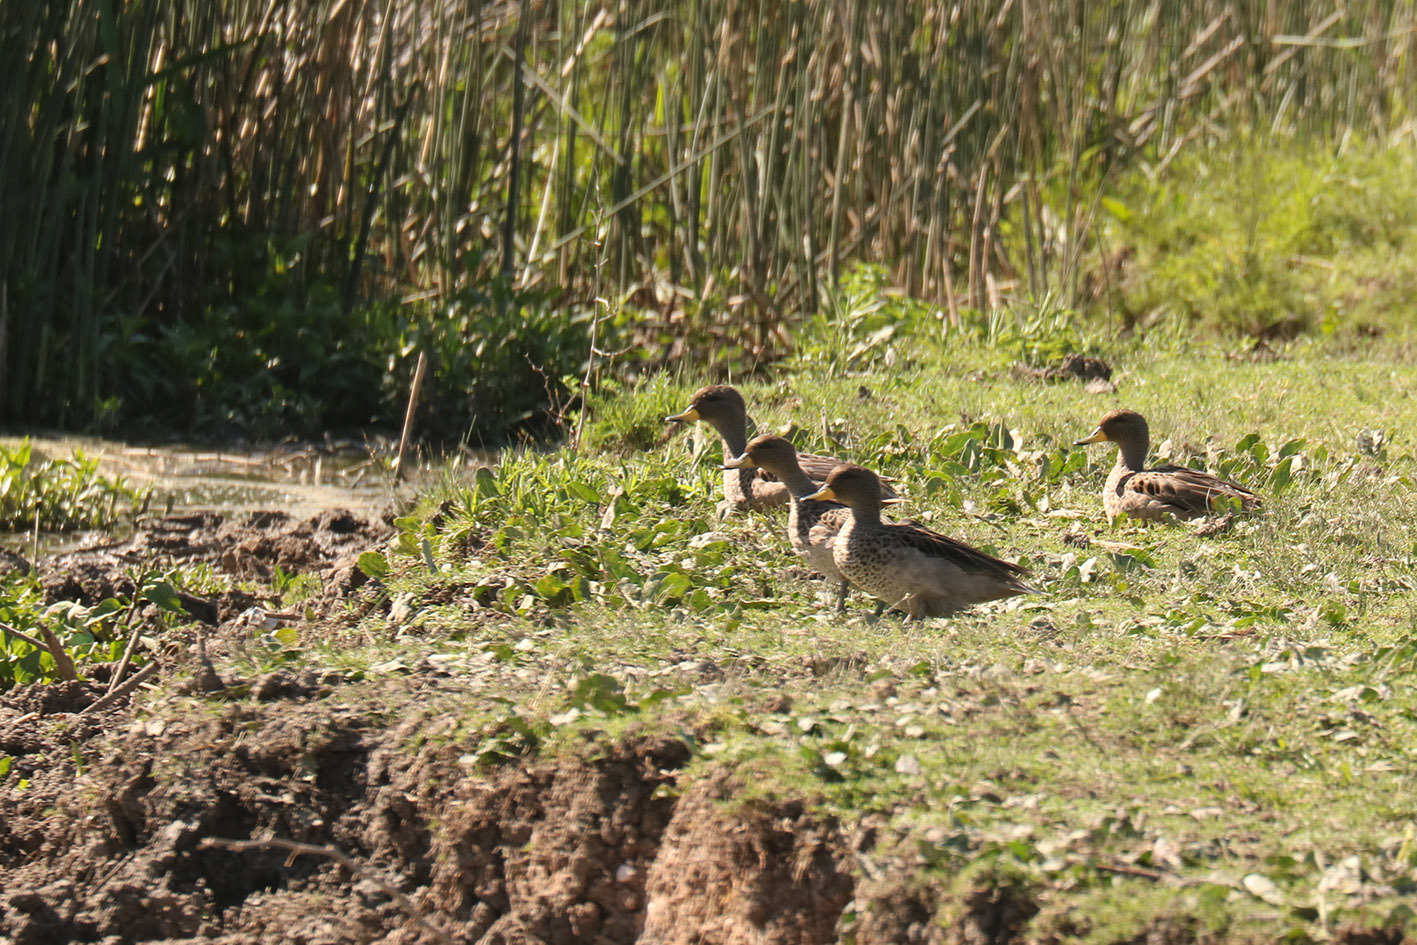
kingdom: Animalia
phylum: Chordata
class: Aves
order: Anseriformes
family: Anatidae
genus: Anas
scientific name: Anas flavirostris
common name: Yellow-billed teal
